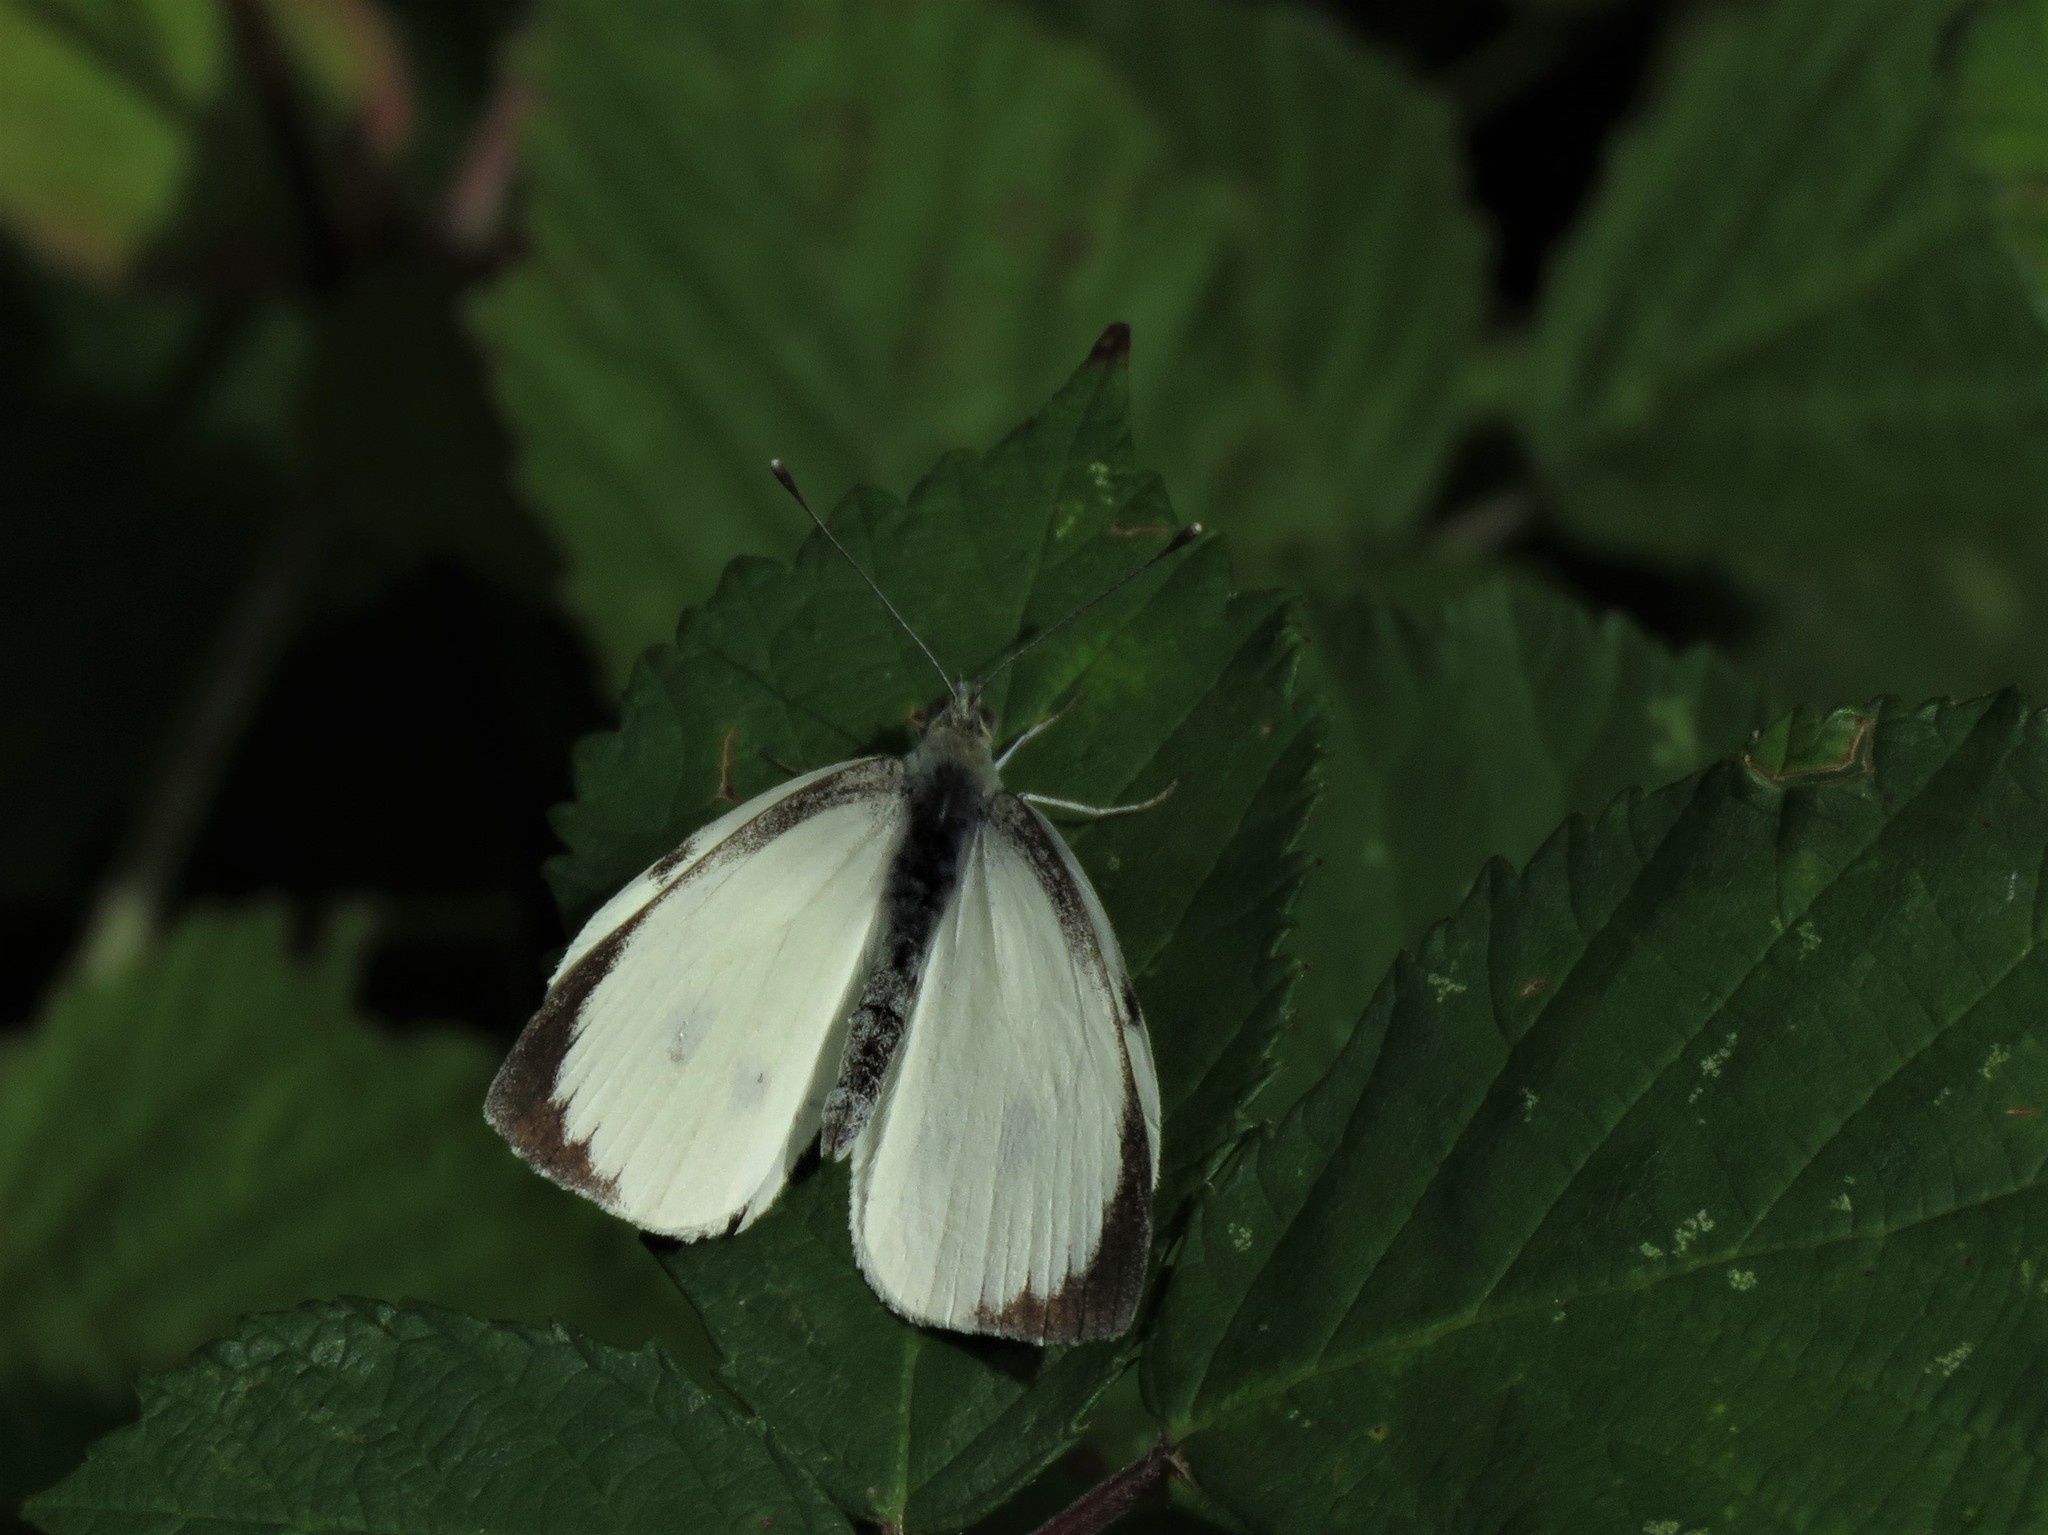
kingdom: Animalia
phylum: Arthropoda
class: Insecta
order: Lepidoptera
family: Pieridae
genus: Pieris
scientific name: Pieris brassicae
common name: Large white
